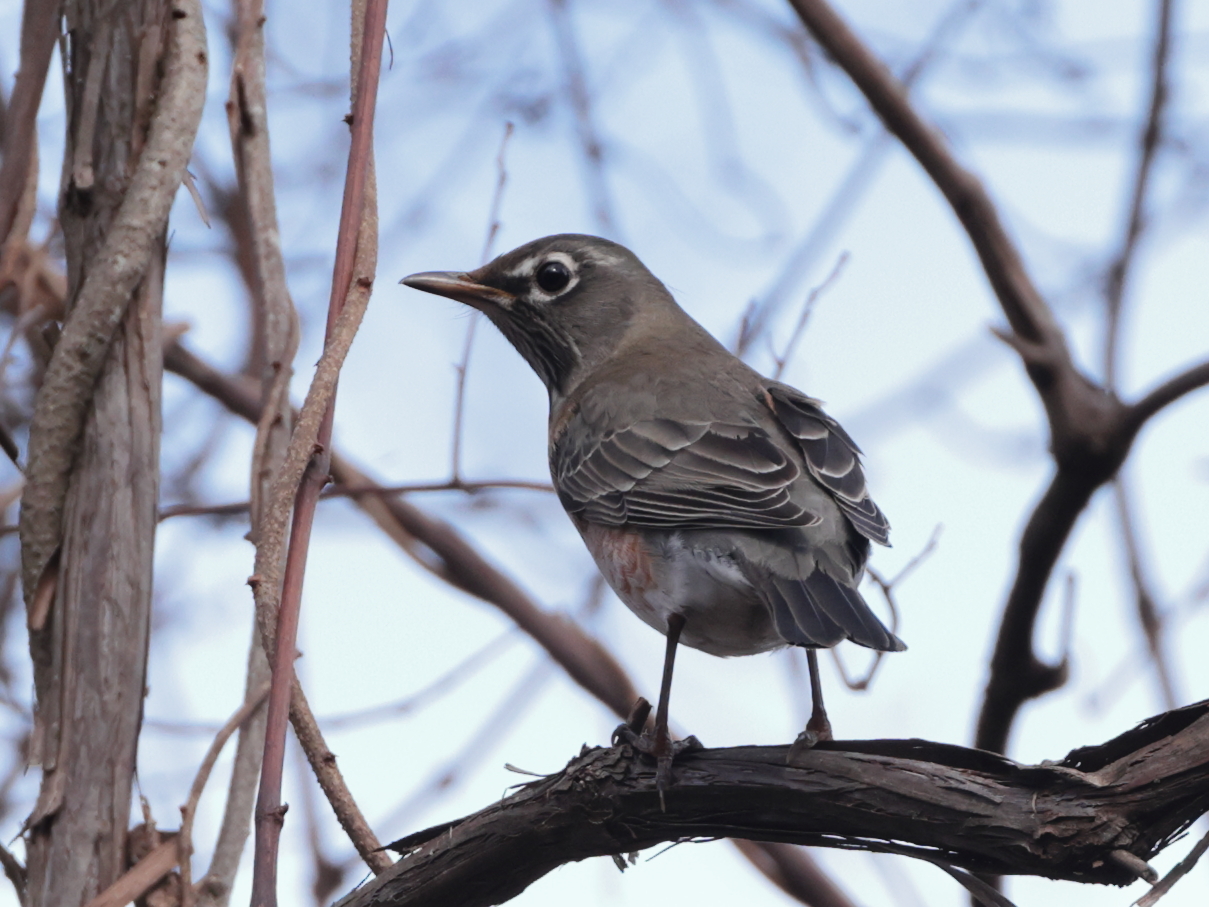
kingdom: Animalia
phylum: Chordata
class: Aves
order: Passeriformes
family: Turdidae
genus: Turdus
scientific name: Turdus migratorius
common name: American robin
